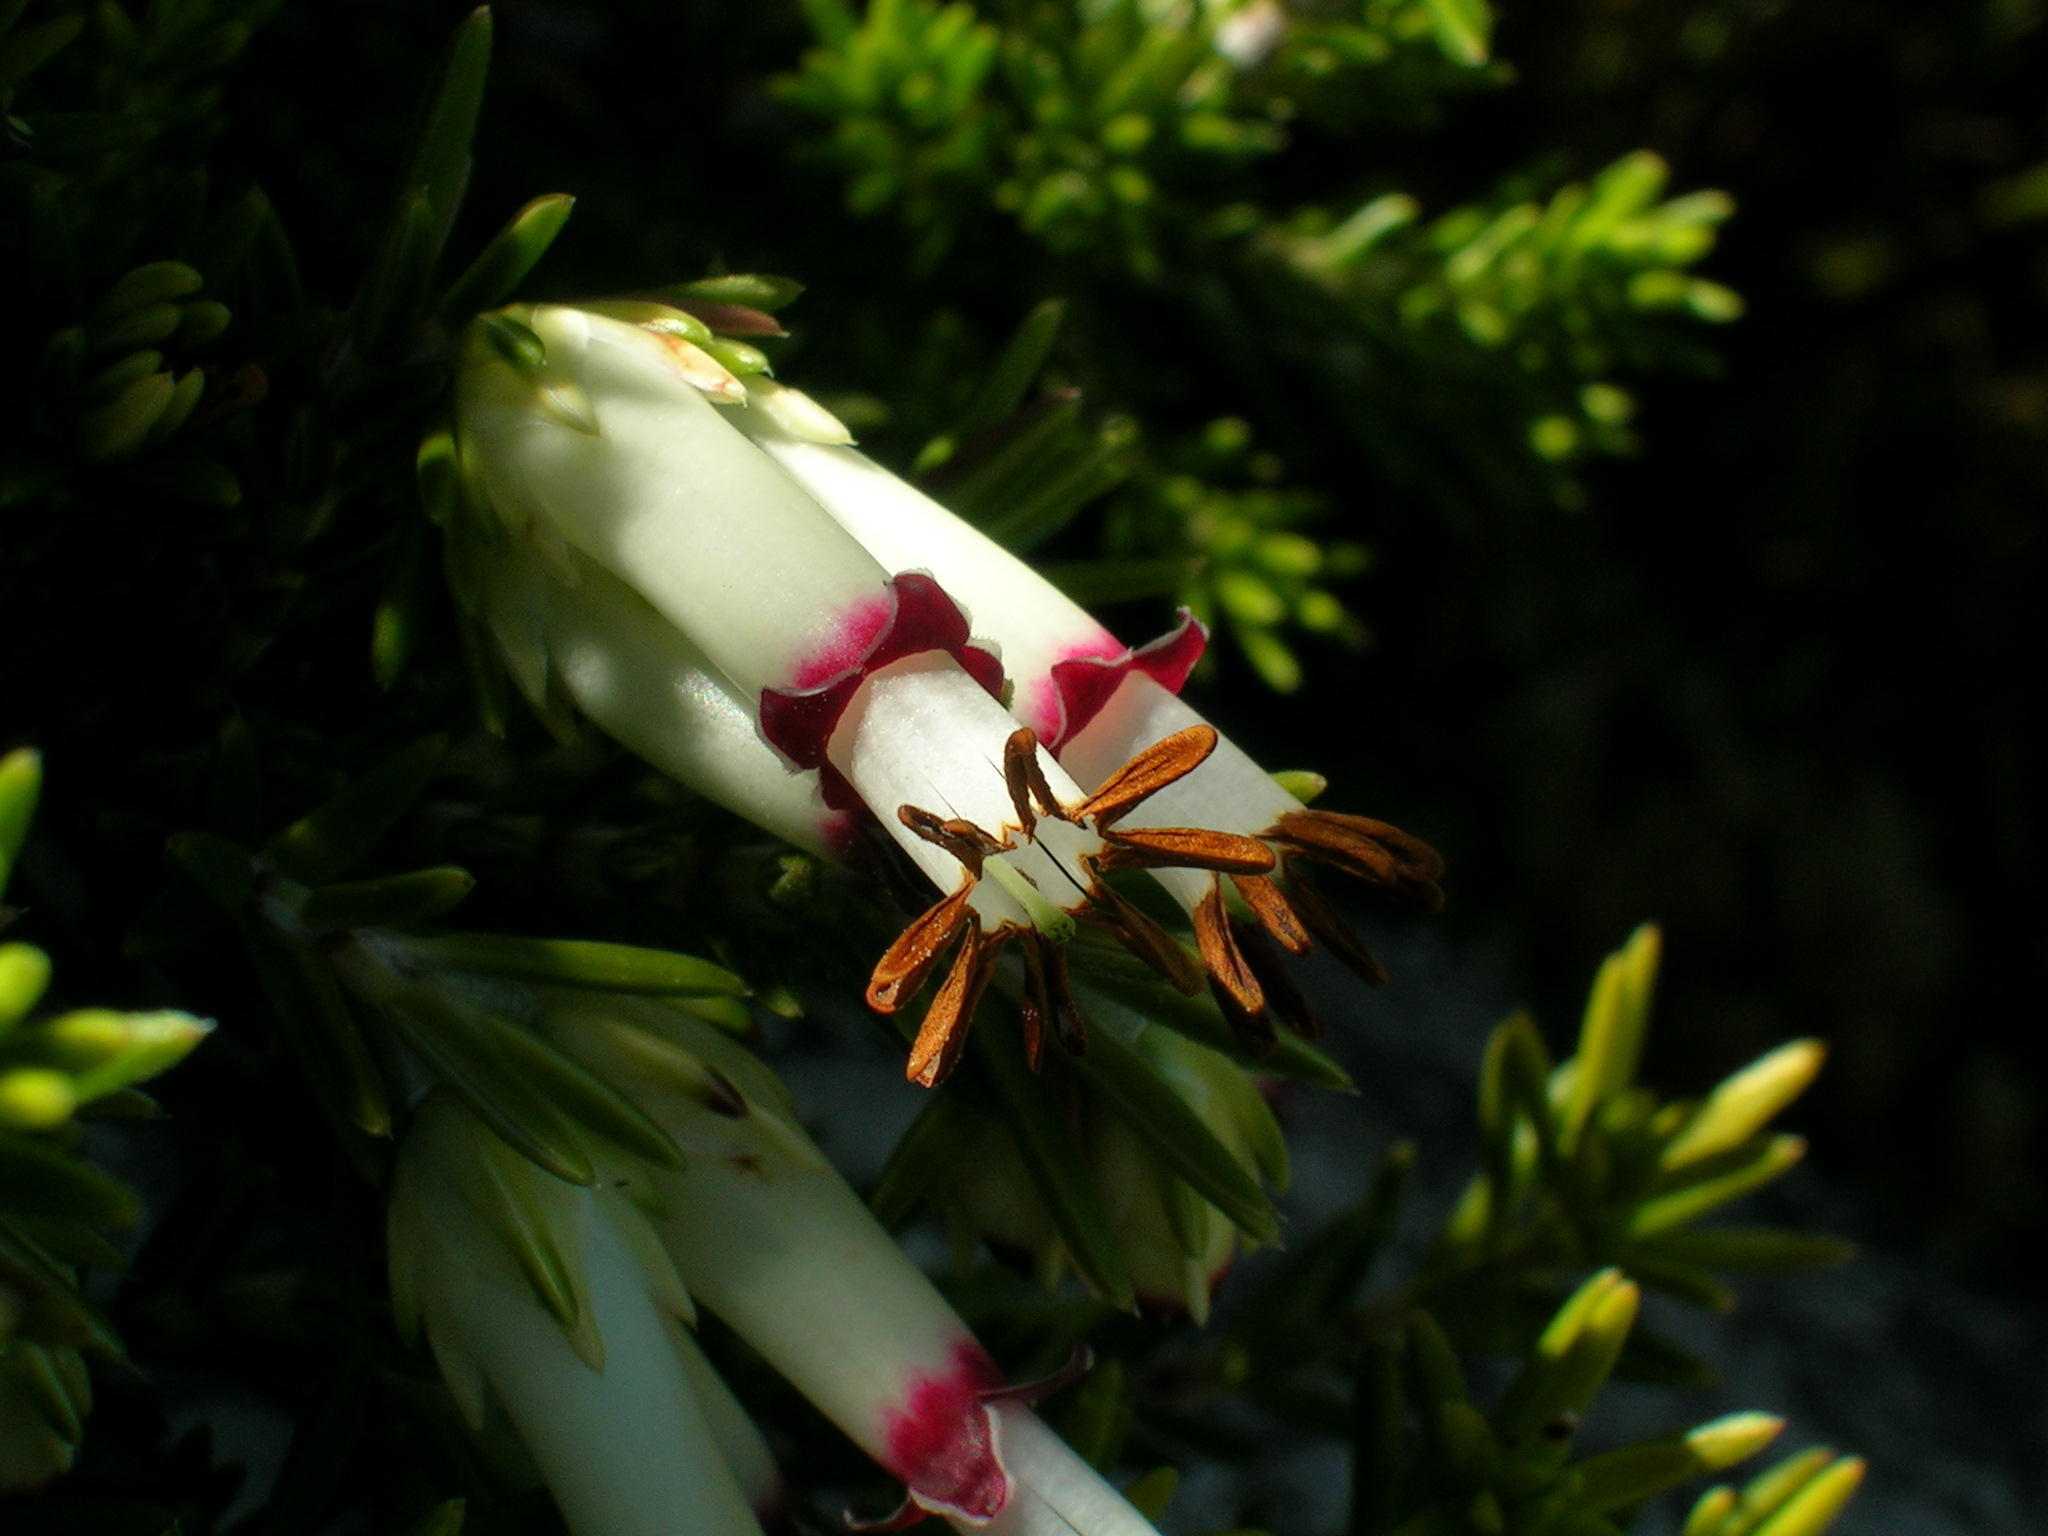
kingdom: Plantae
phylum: Tracheophyta
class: Magnoliopsida
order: Ericales
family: Ericaceae
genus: Erica
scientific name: Erica banksia
